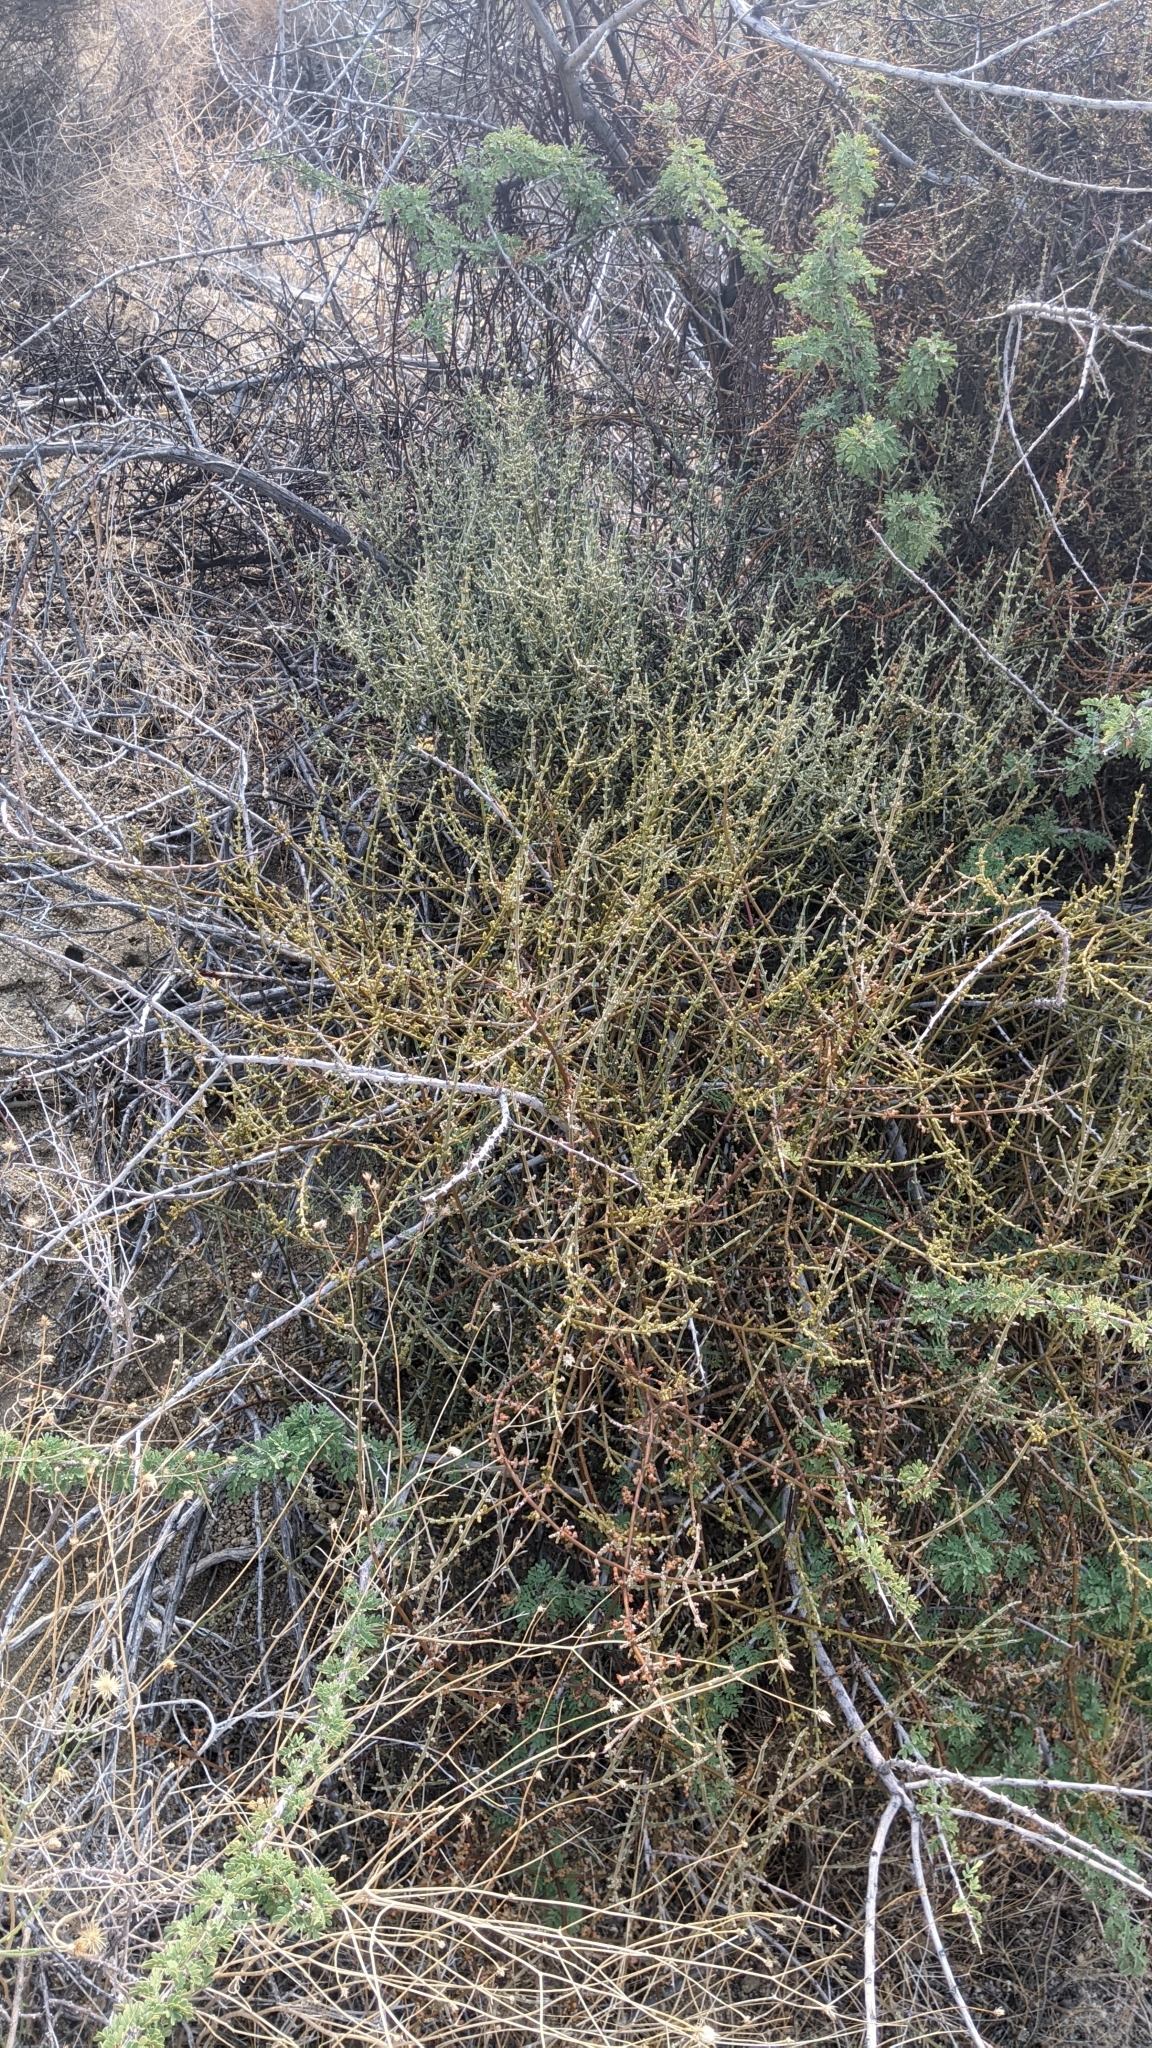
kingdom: Plantae
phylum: Tracheophyta
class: Magnoliopsida
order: Santalales
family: Viscaceae
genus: Phoradendron
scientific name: Phoradendron californicum
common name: Acacia mistletoe
